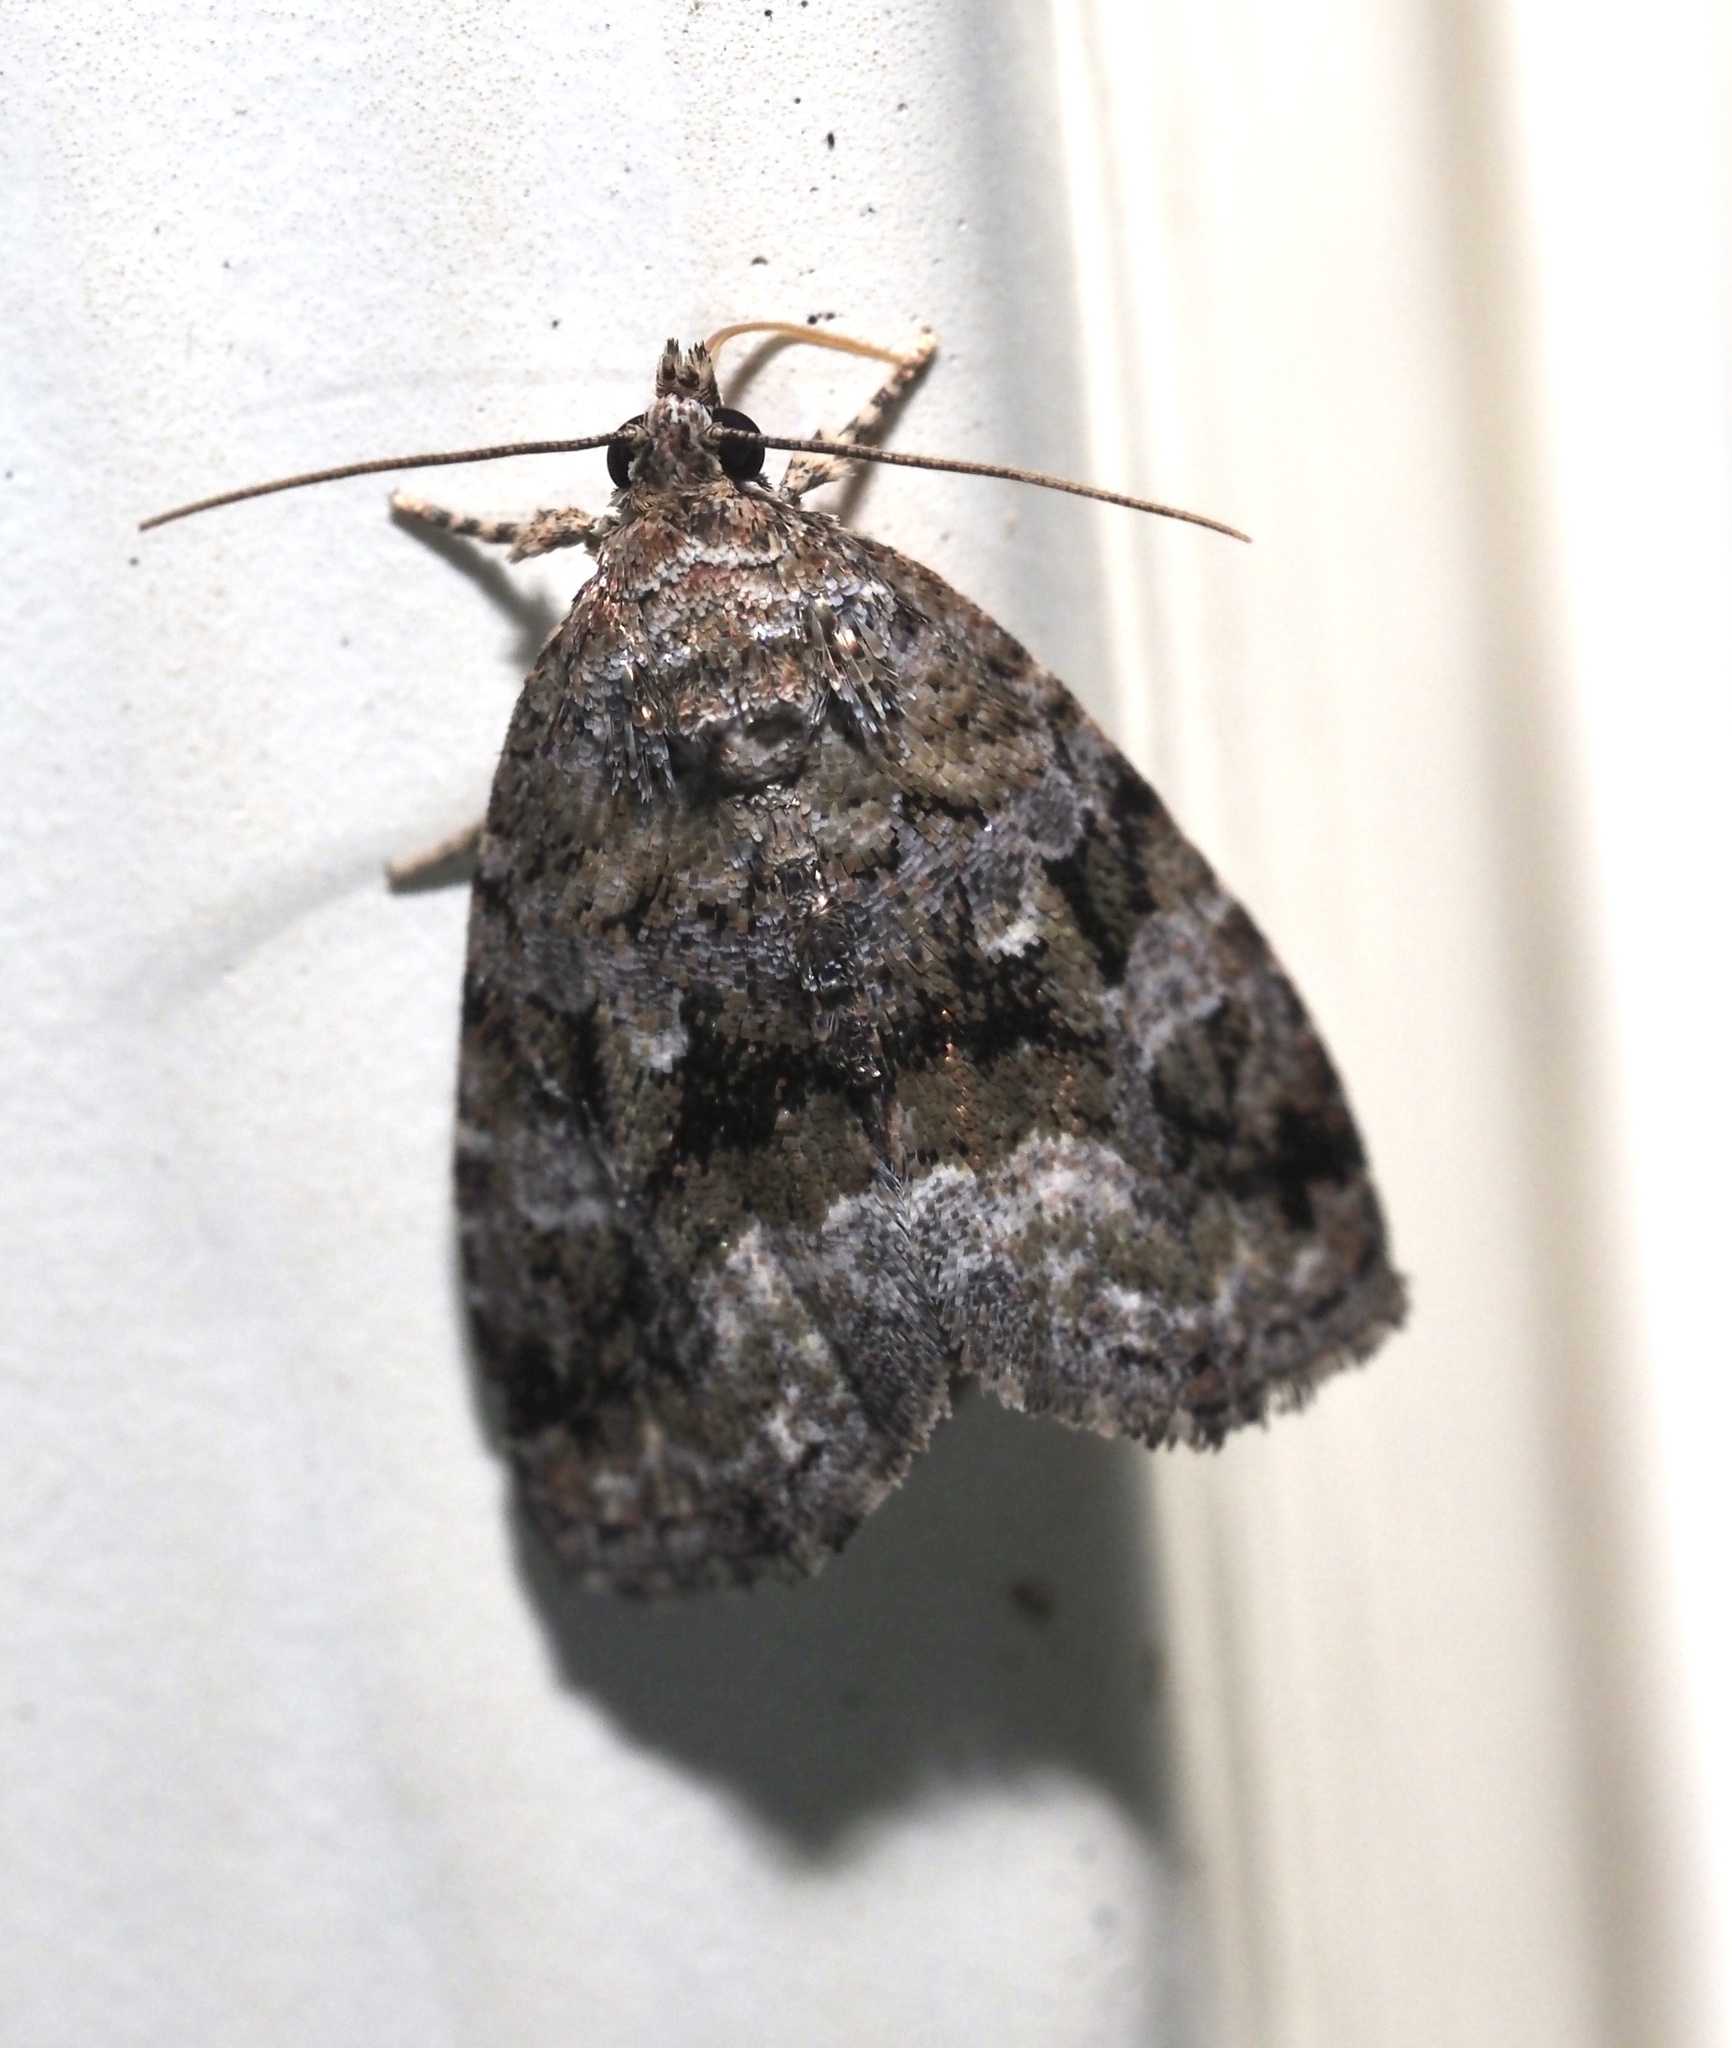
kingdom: Animalia
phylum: Arthropoda
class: Insecta
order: Lepidoptera
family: Noctuidae
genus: Protodeltote
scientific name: Protodeltote muscosula
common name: Large mossy glyph
